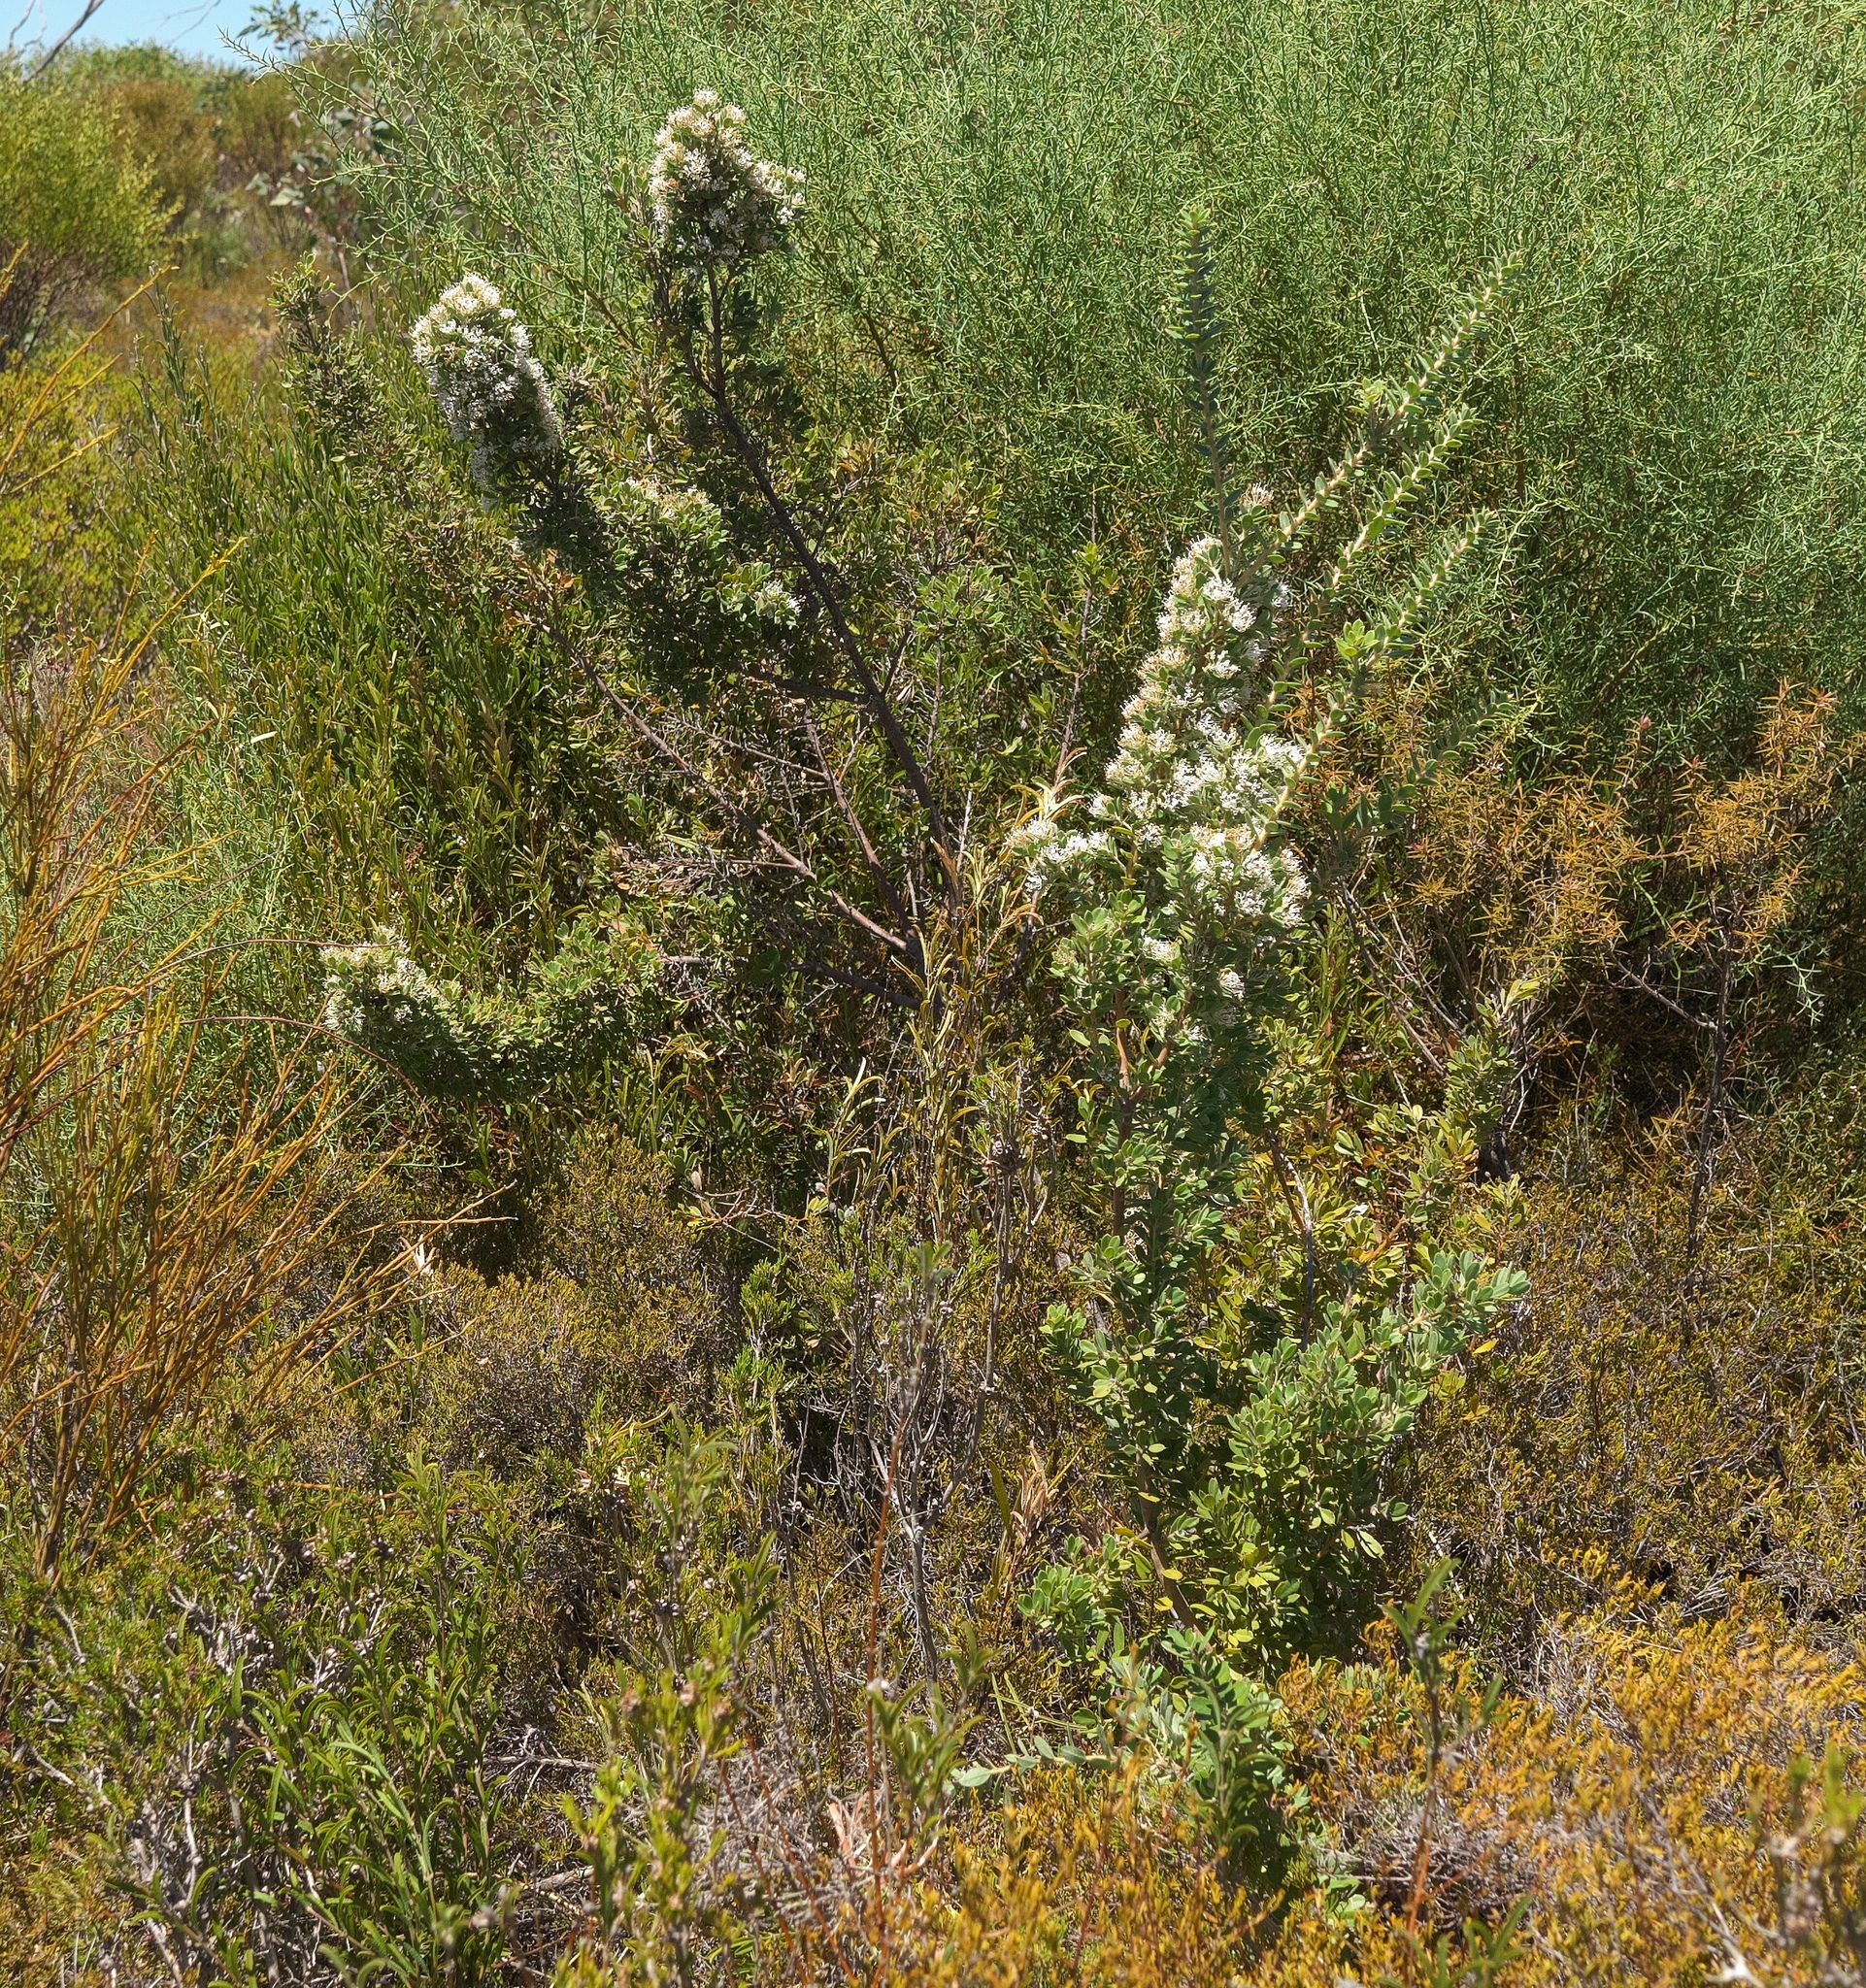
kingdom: Plantae
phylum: Tracheophyta
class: Magnoliopsida
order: Proteales
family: Proteaceae
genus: Hakea
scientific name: Hakea ruscifolia
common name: Candle hakea
